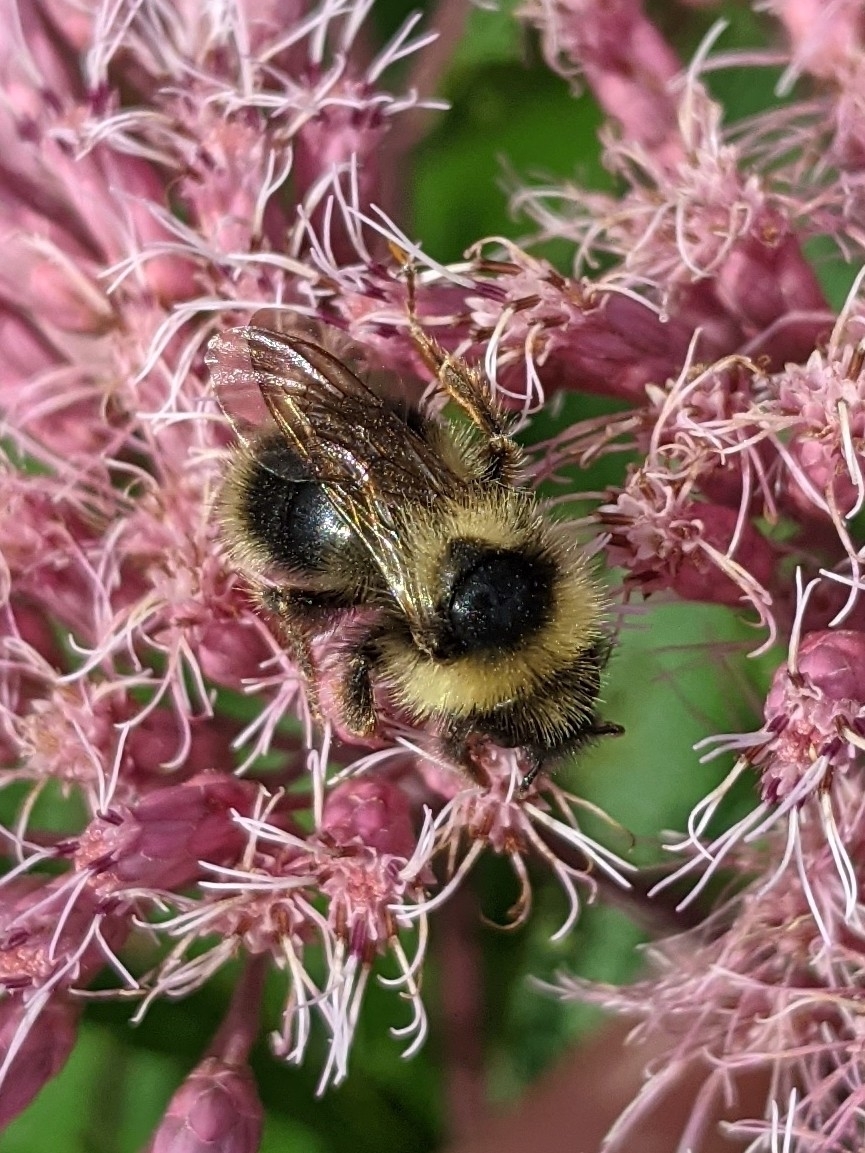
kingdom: Animalia
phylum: Arthropoda
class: Insecta
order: Hymenoptera
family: Apidae
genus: Bombus
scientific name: Bombus flavidus
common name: Fernald cuckoo bumble bee
